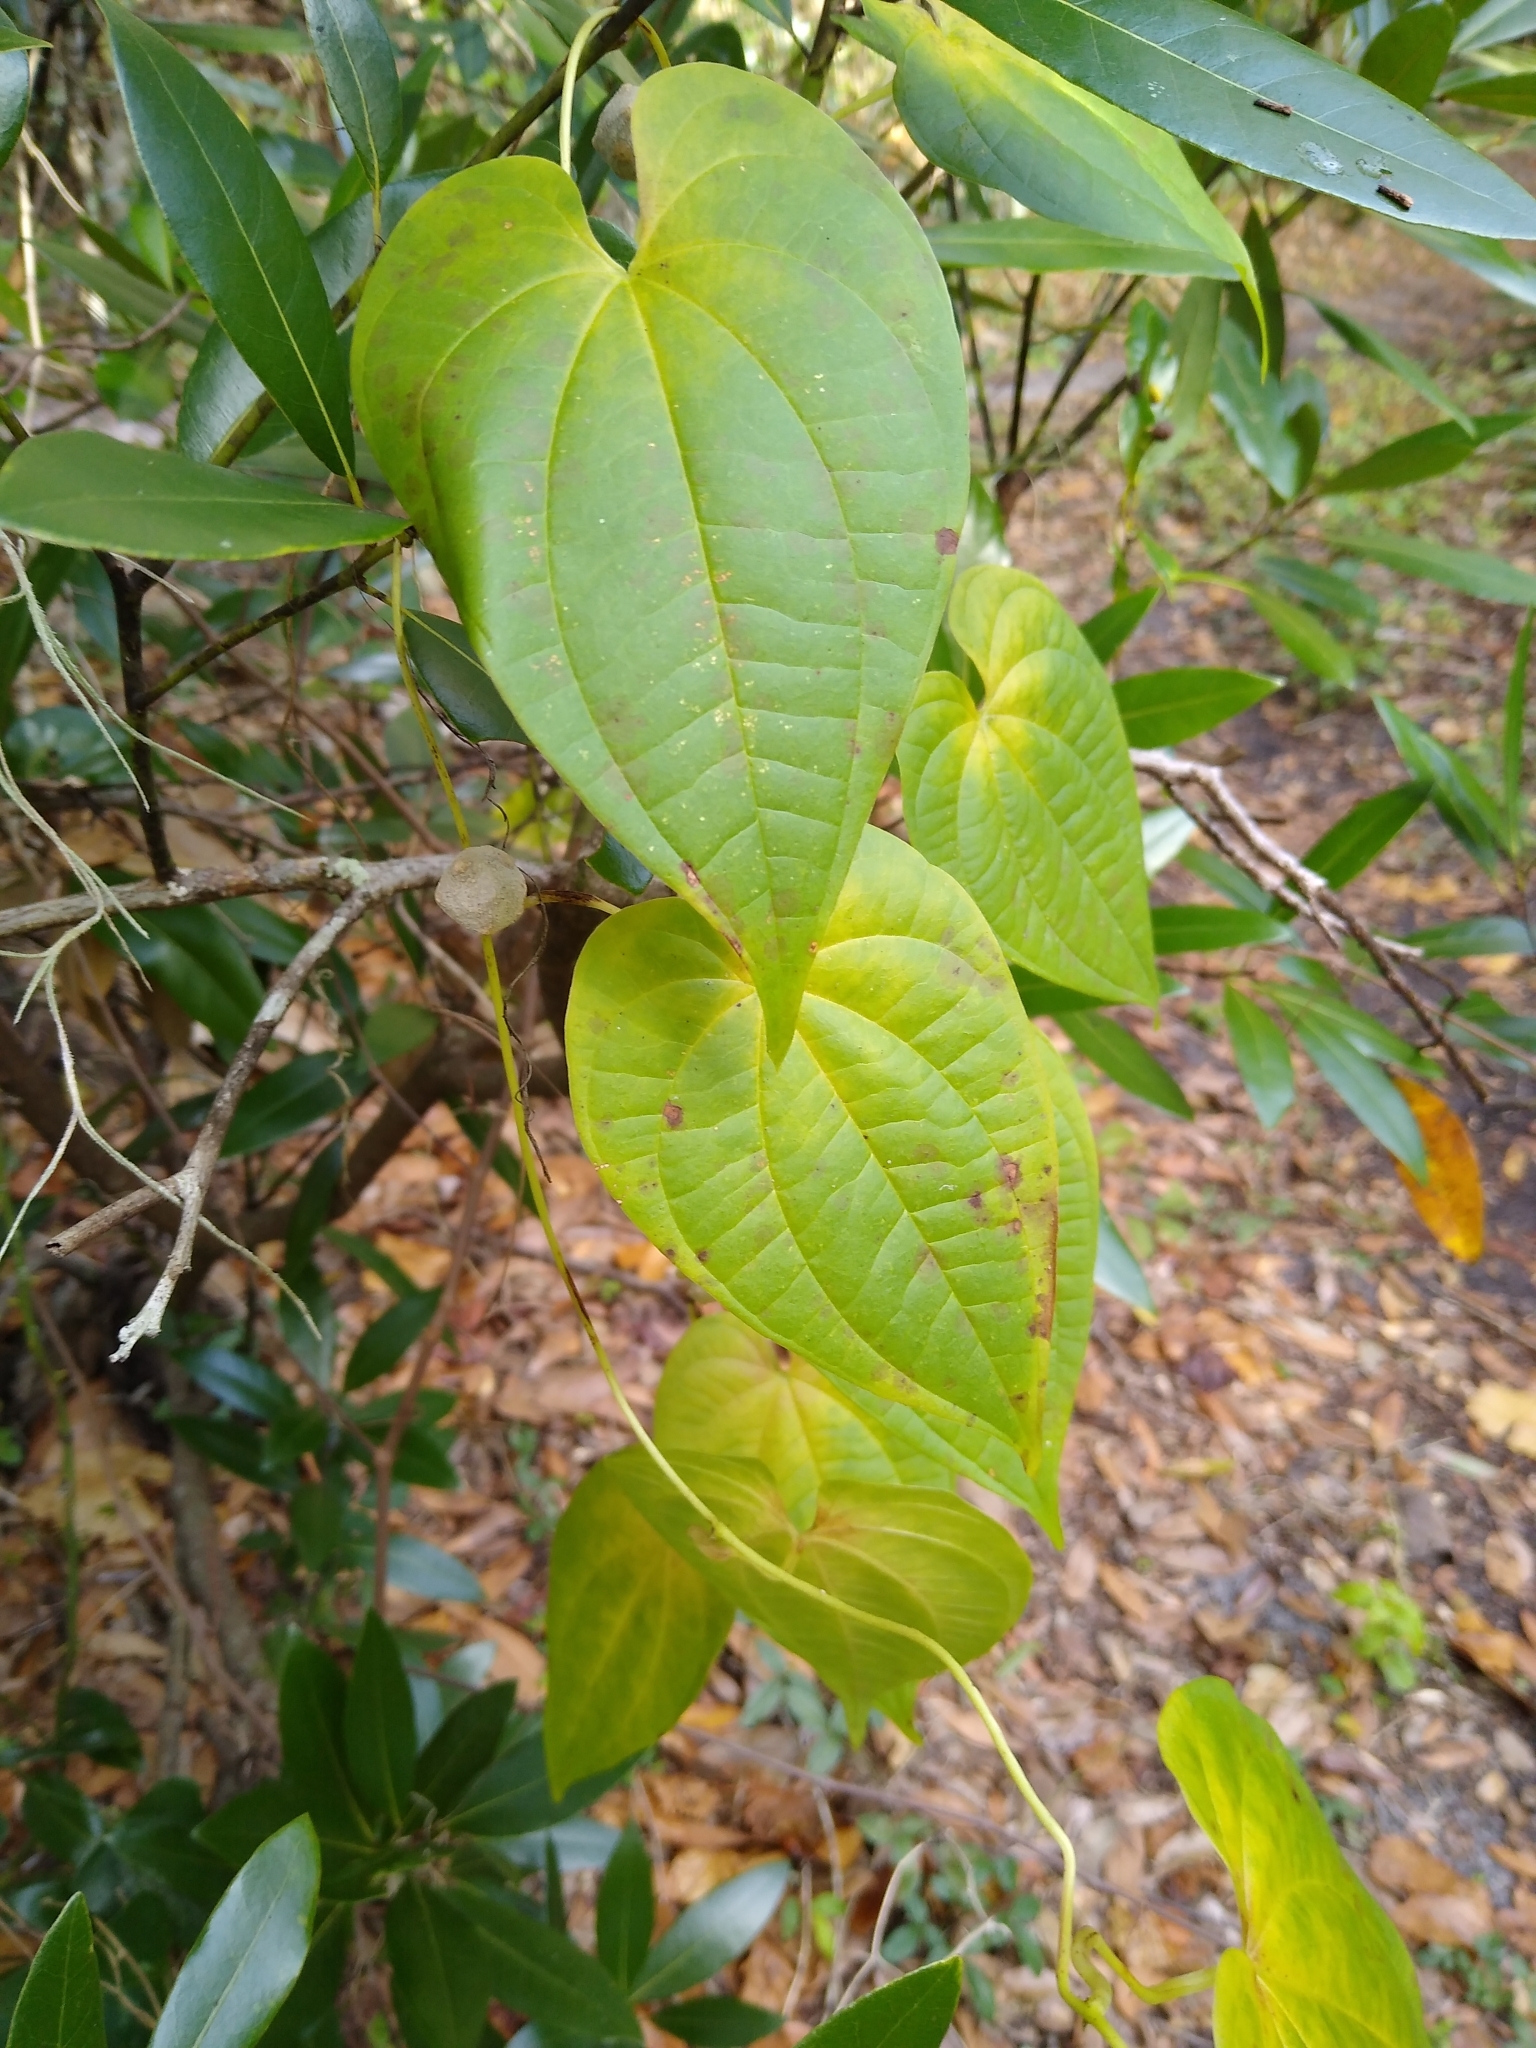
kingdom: Plantae
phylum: Tracheophyta
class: Liliopsida
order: Dioscoreales
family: Dioscoreaceae
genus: Dioscorea
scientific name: Dioscorea bulbifera
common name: Air yam
